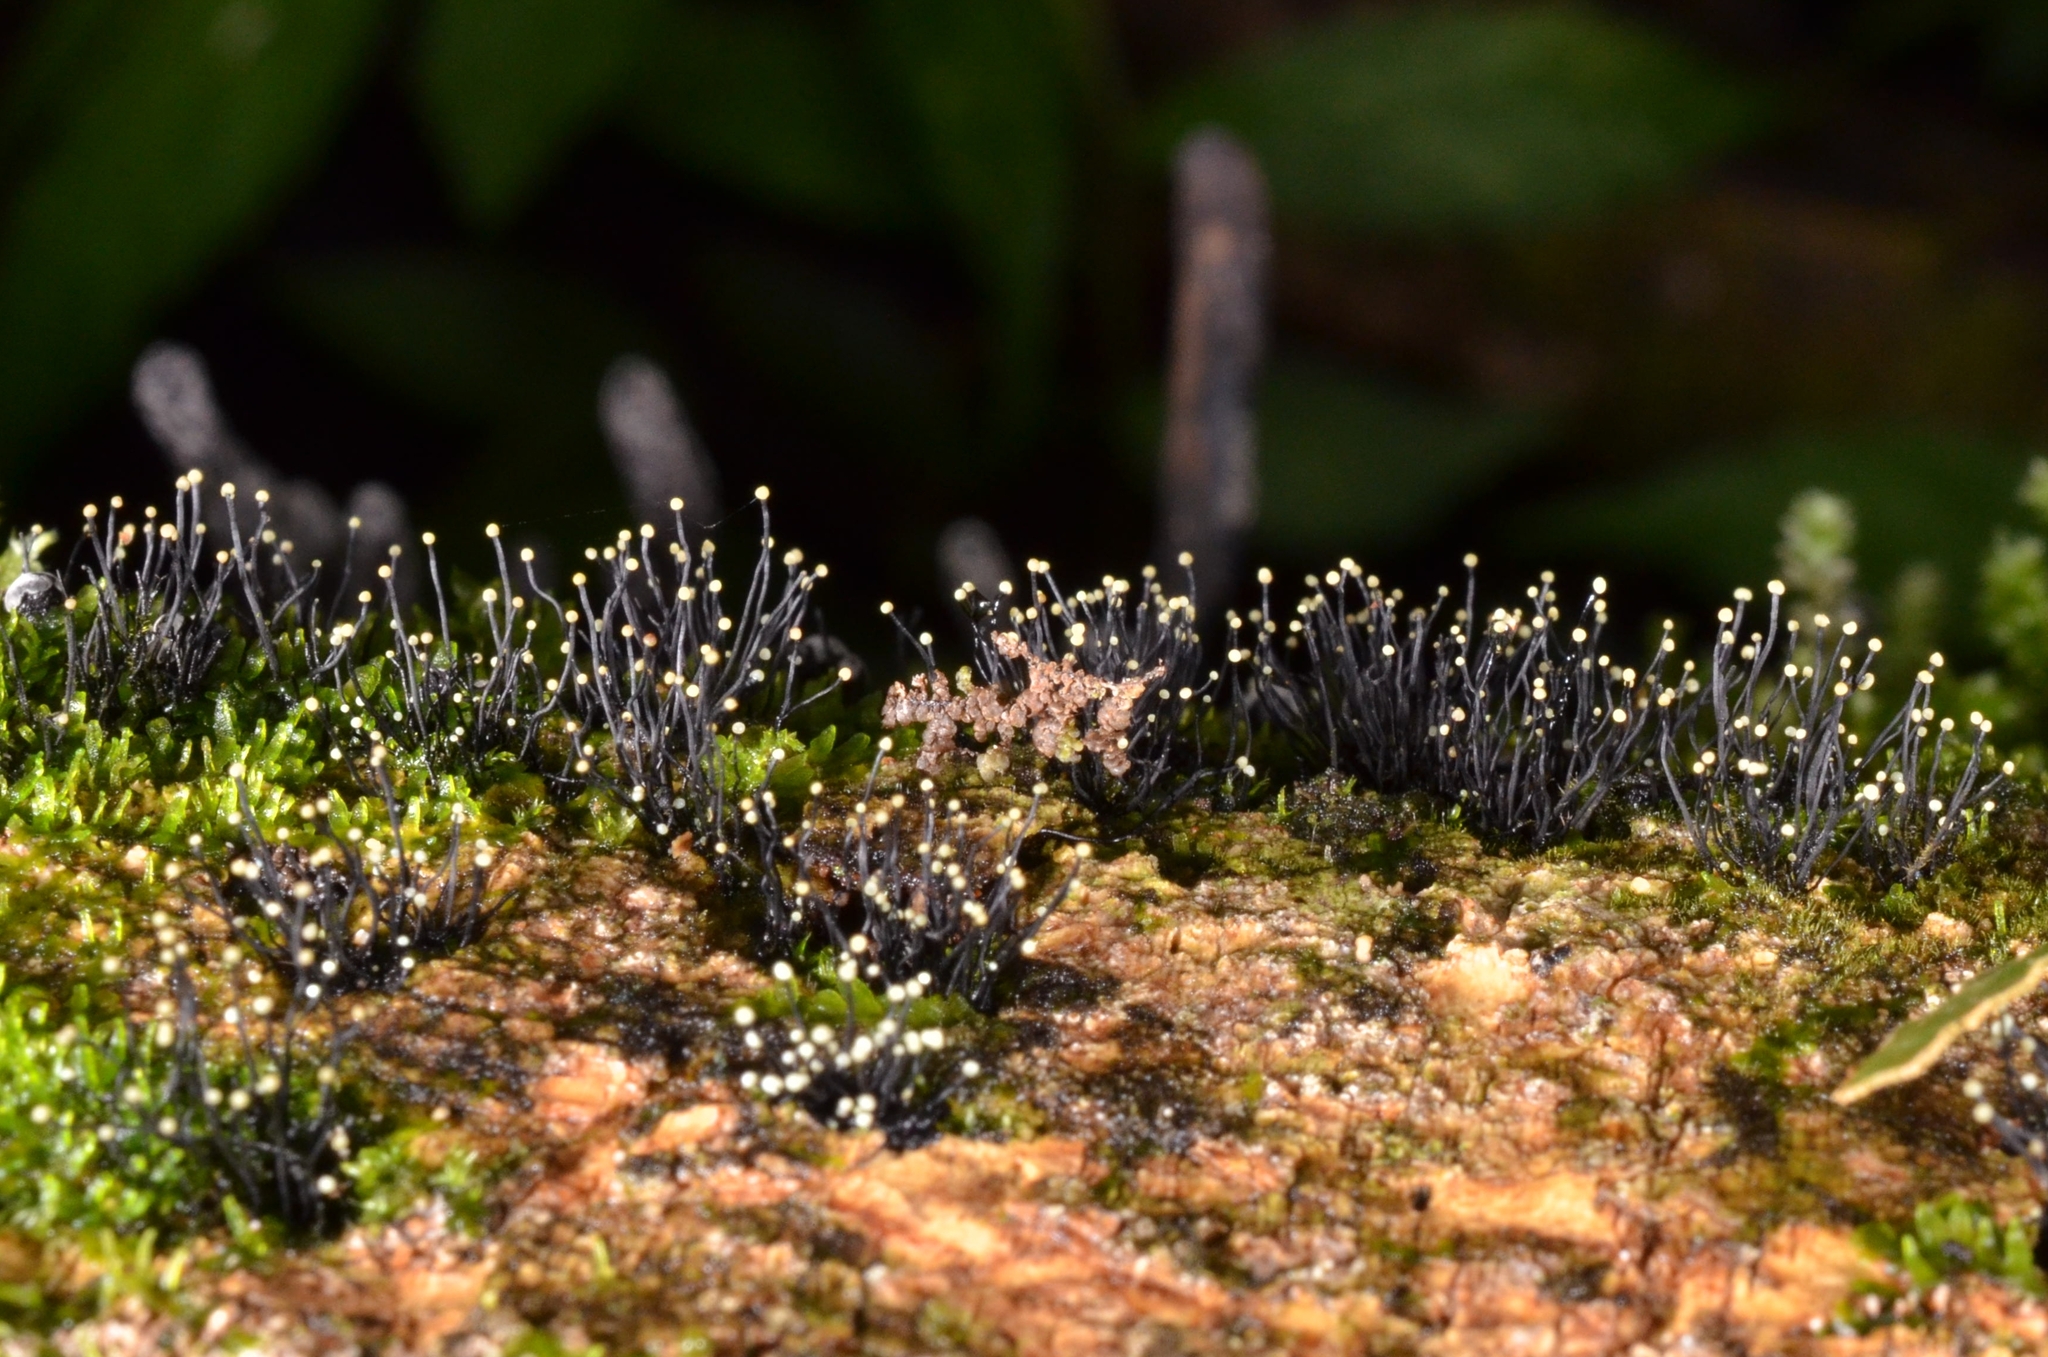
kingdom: Fungi
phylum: Ascomycota
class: Sordariomycetes
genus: Stromatographium
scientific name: Stromatographium stromaticum
